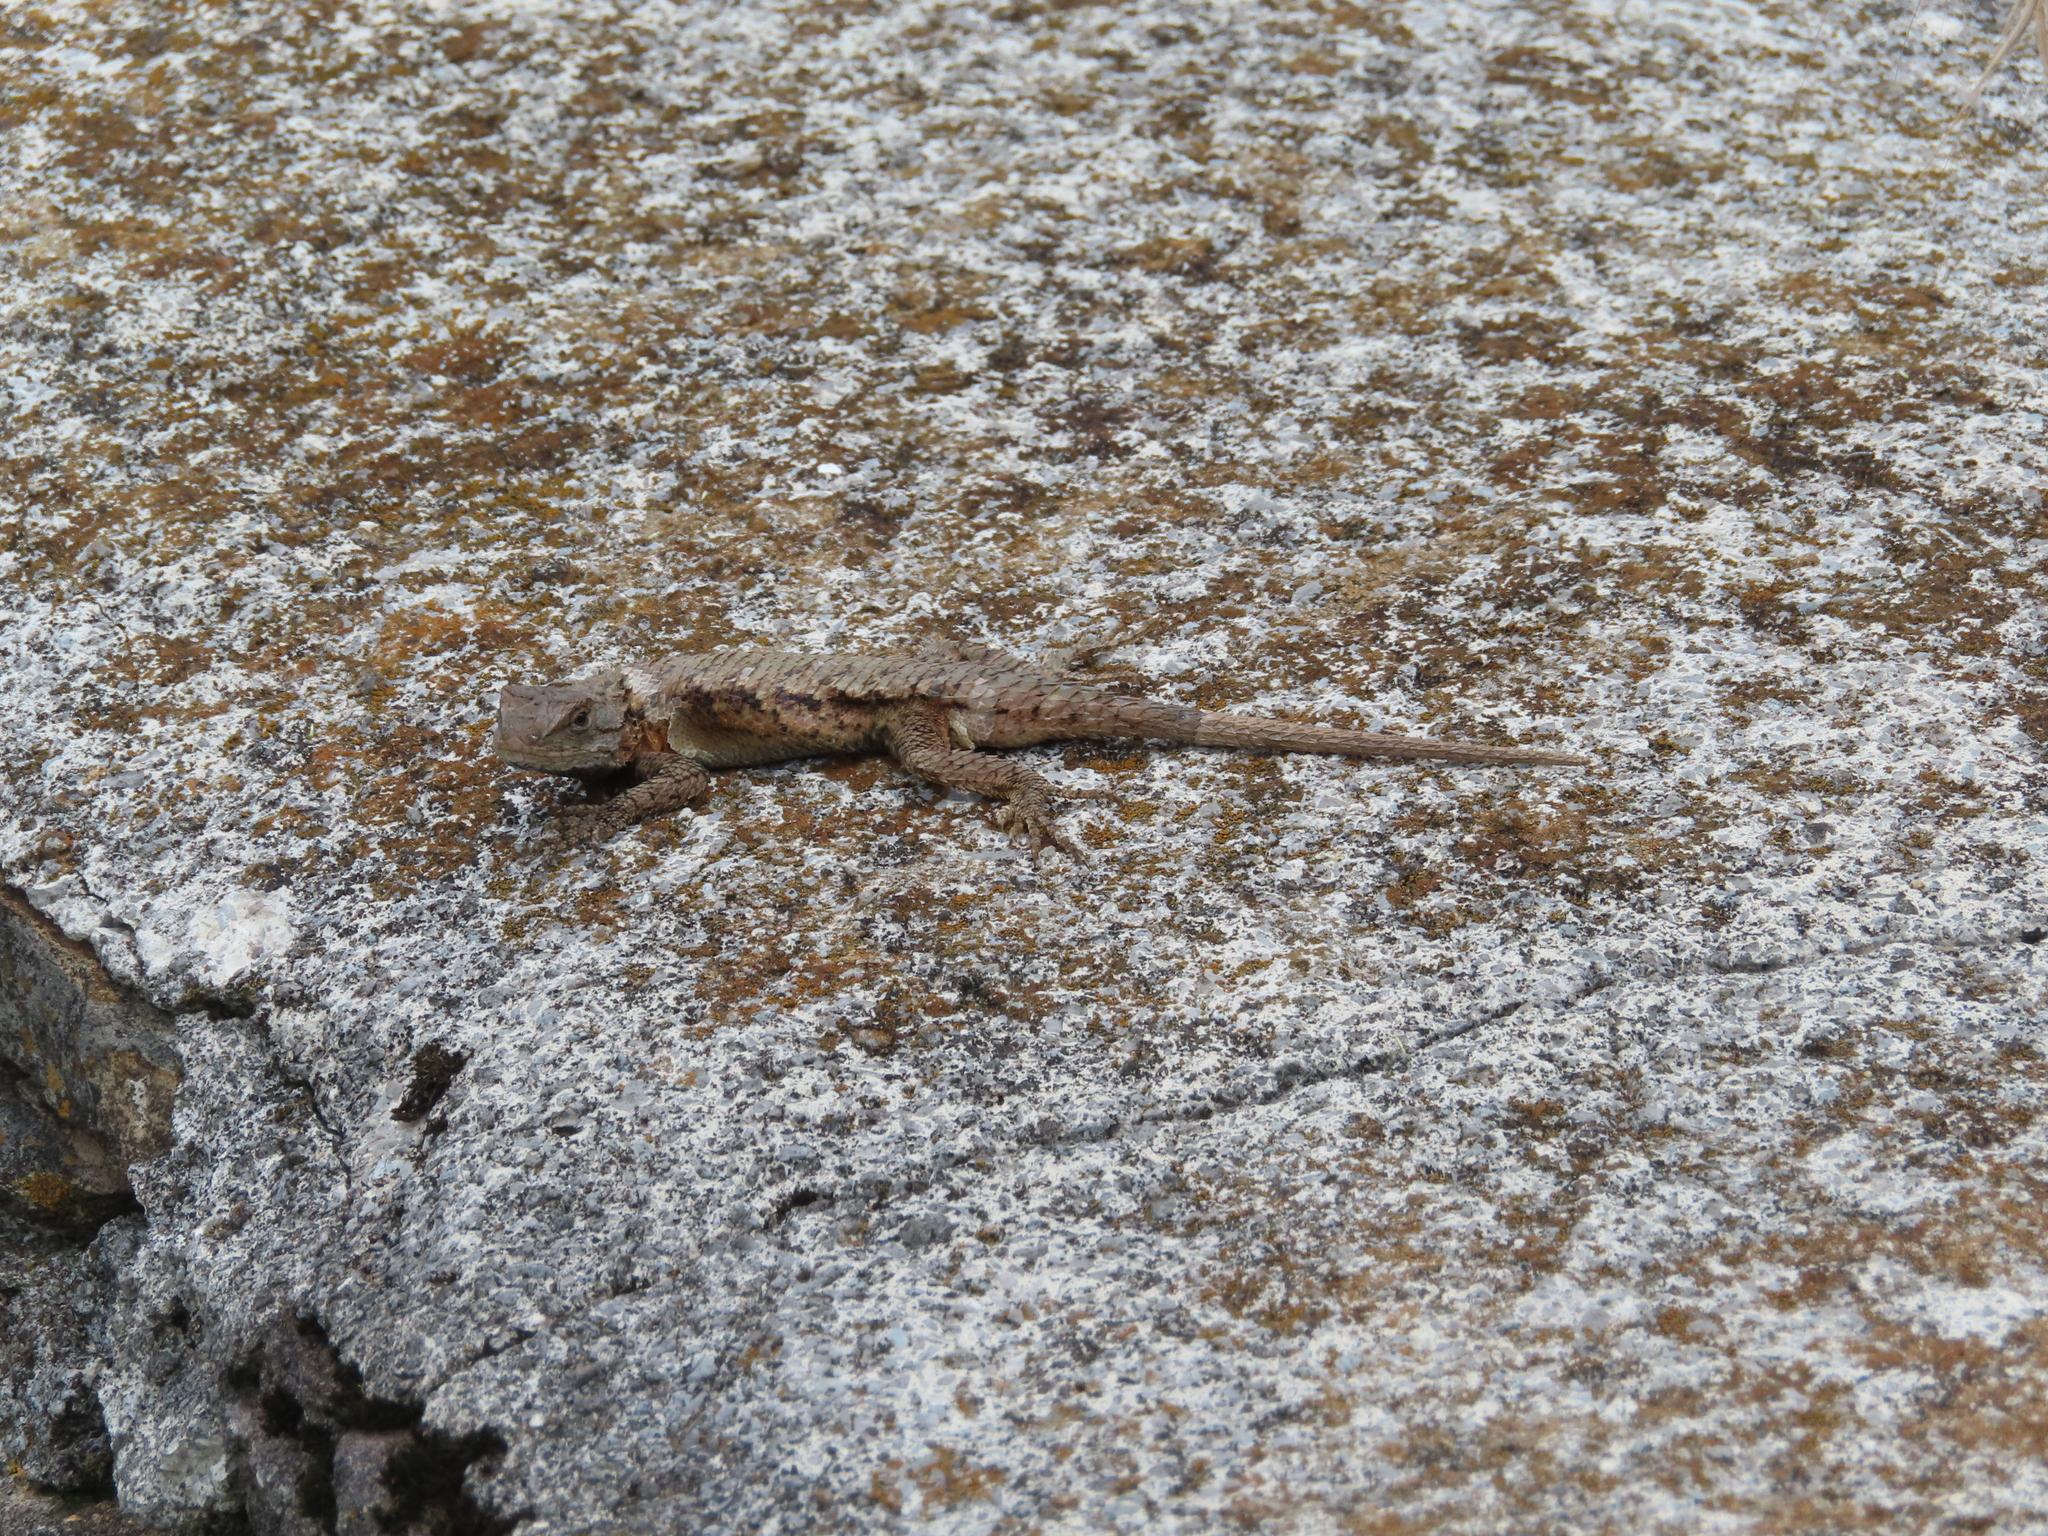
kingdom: Animalia
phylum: Chordata
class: Squamata
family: Phrynosomatidae
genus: Sceloporus
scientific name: Sceloporus undulatus
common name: Eastern fence lizard
